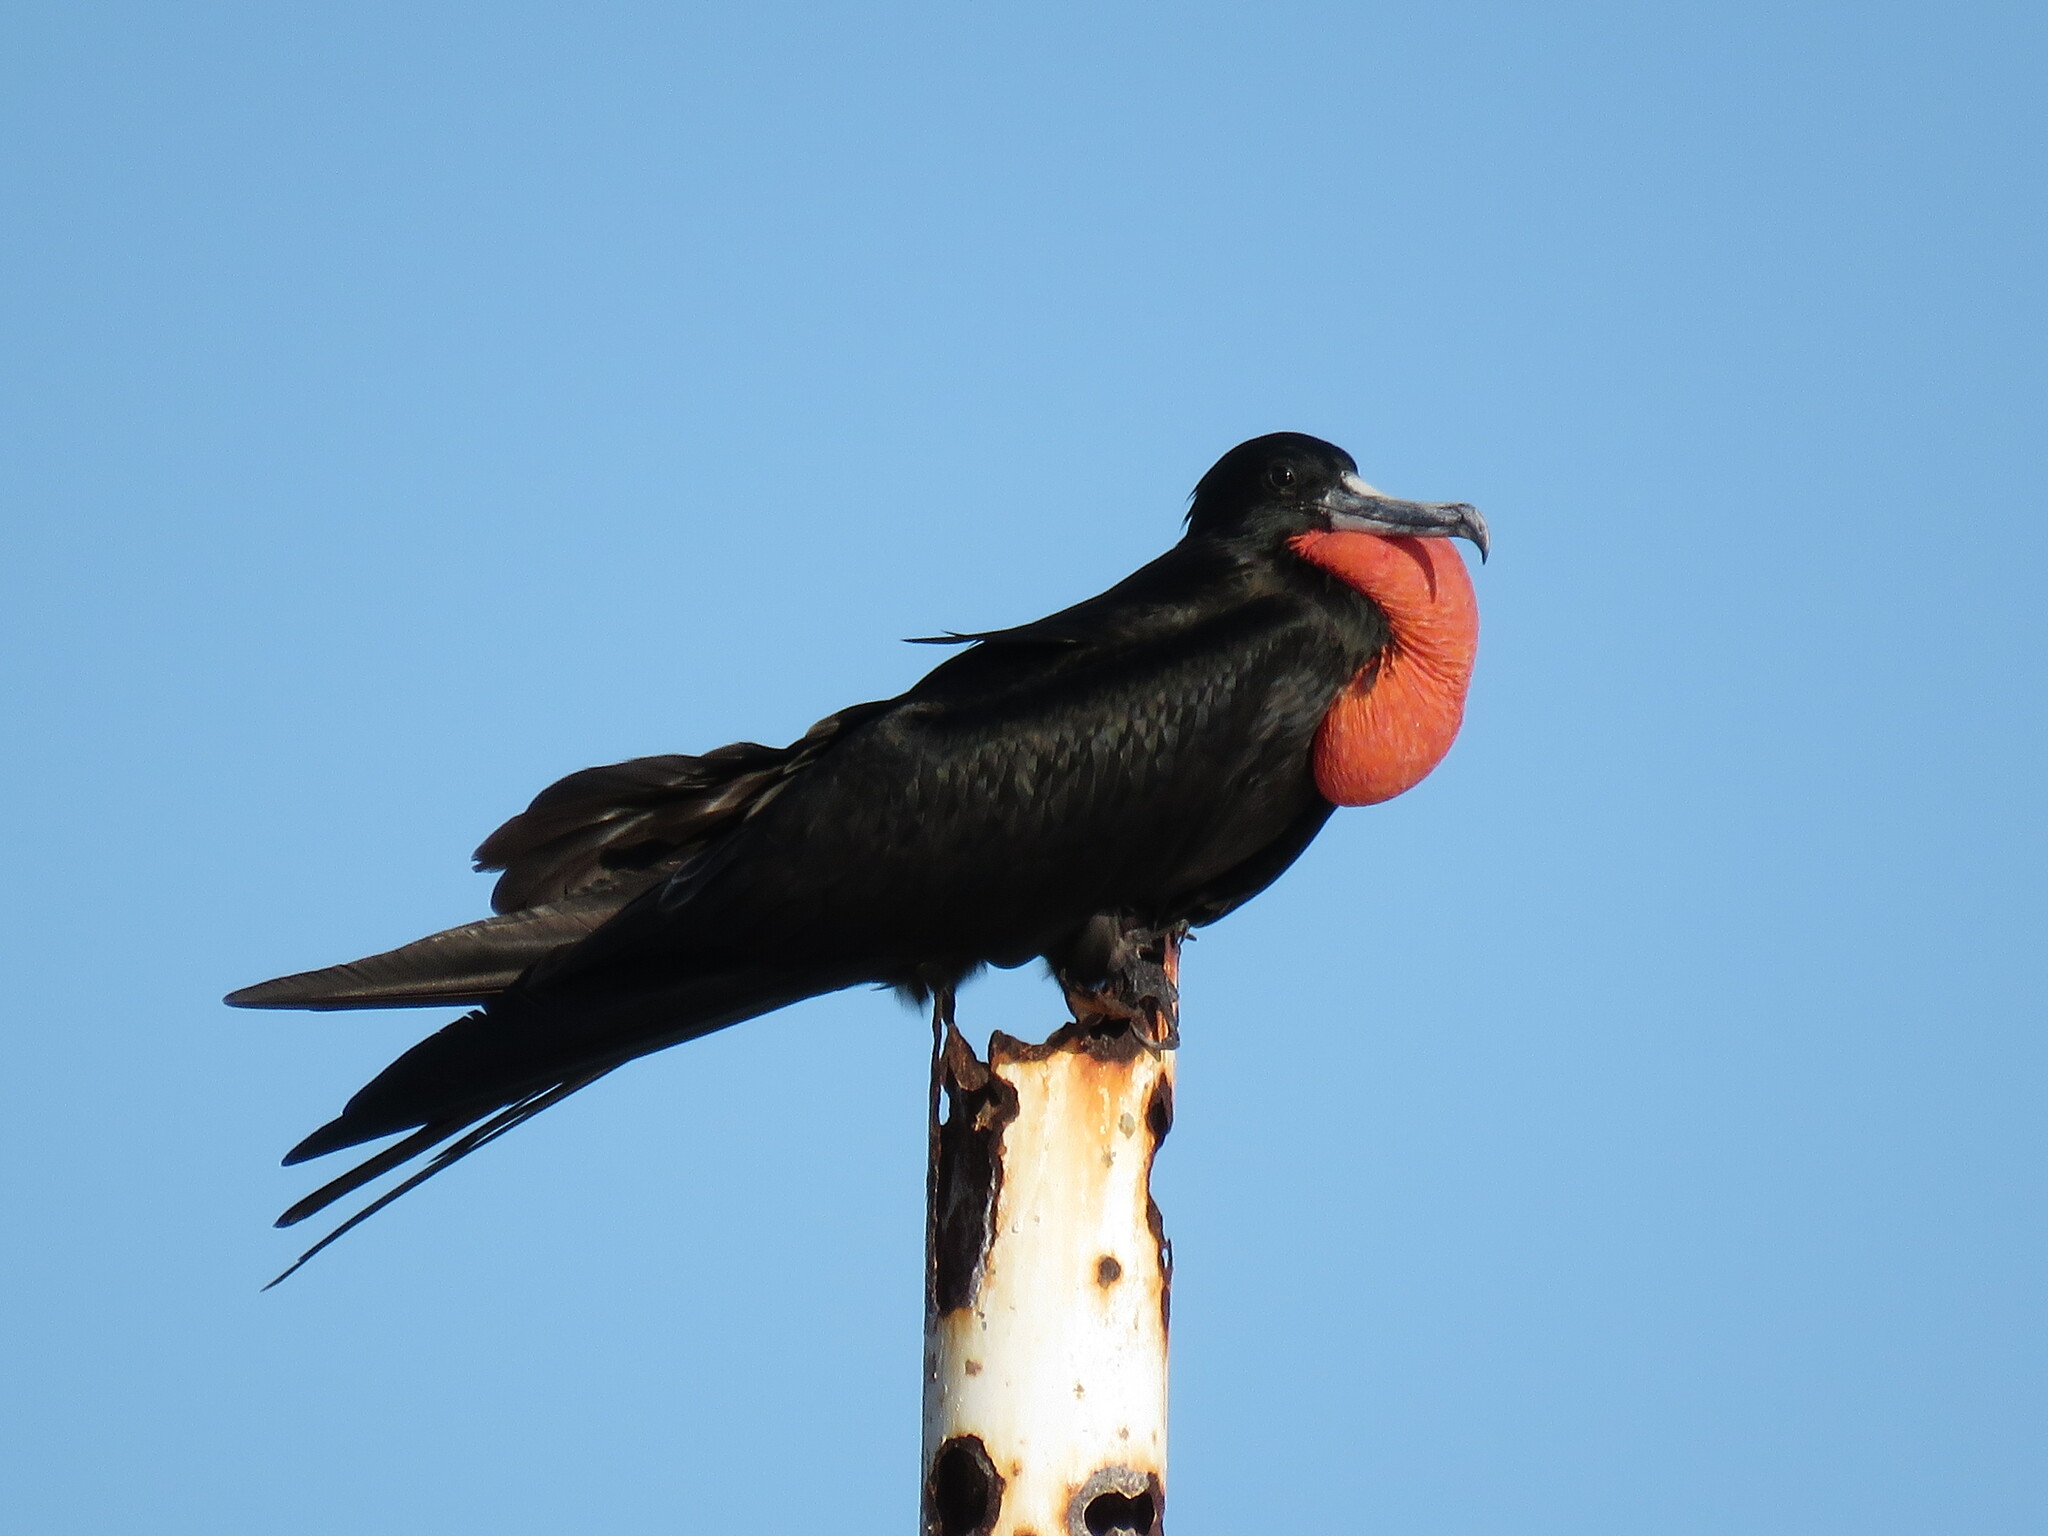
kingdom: Animalia
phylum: Chordata
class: Aves
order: Suliformes
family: Fregatidae
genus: Fregata
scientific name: Fregata magnificens
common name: Magnificent frigatebird
